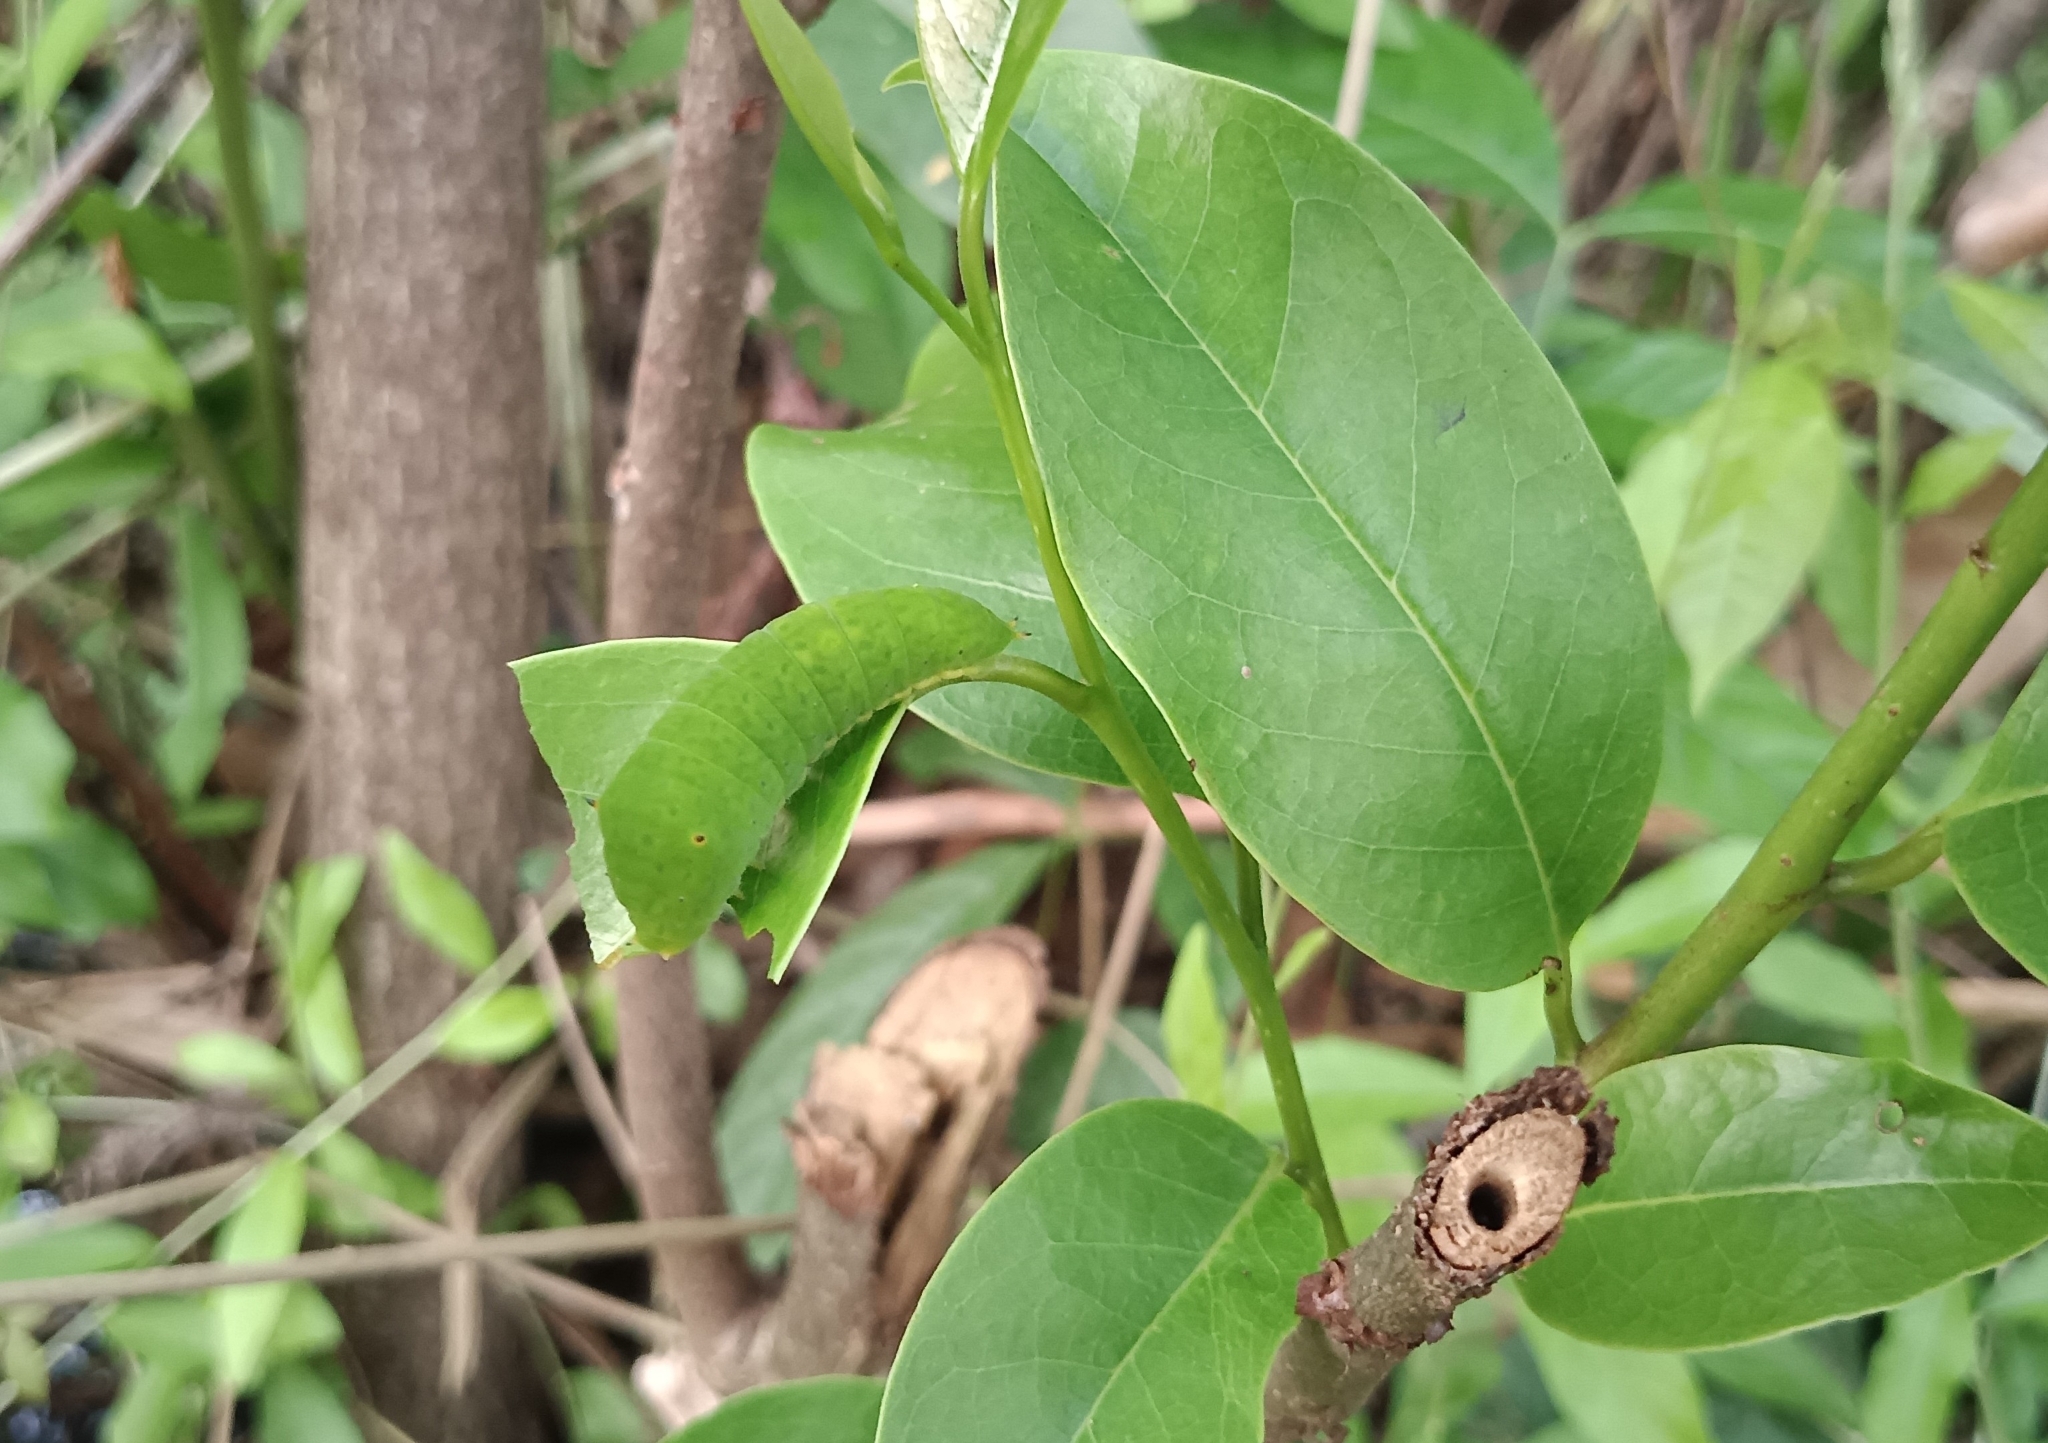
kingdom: Animalia
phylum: Arthropoda
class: Insecta
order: Lepidoptera
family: Papilionidae
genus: Graphium
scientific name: Graphium agamemnon
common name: Tailed jay
